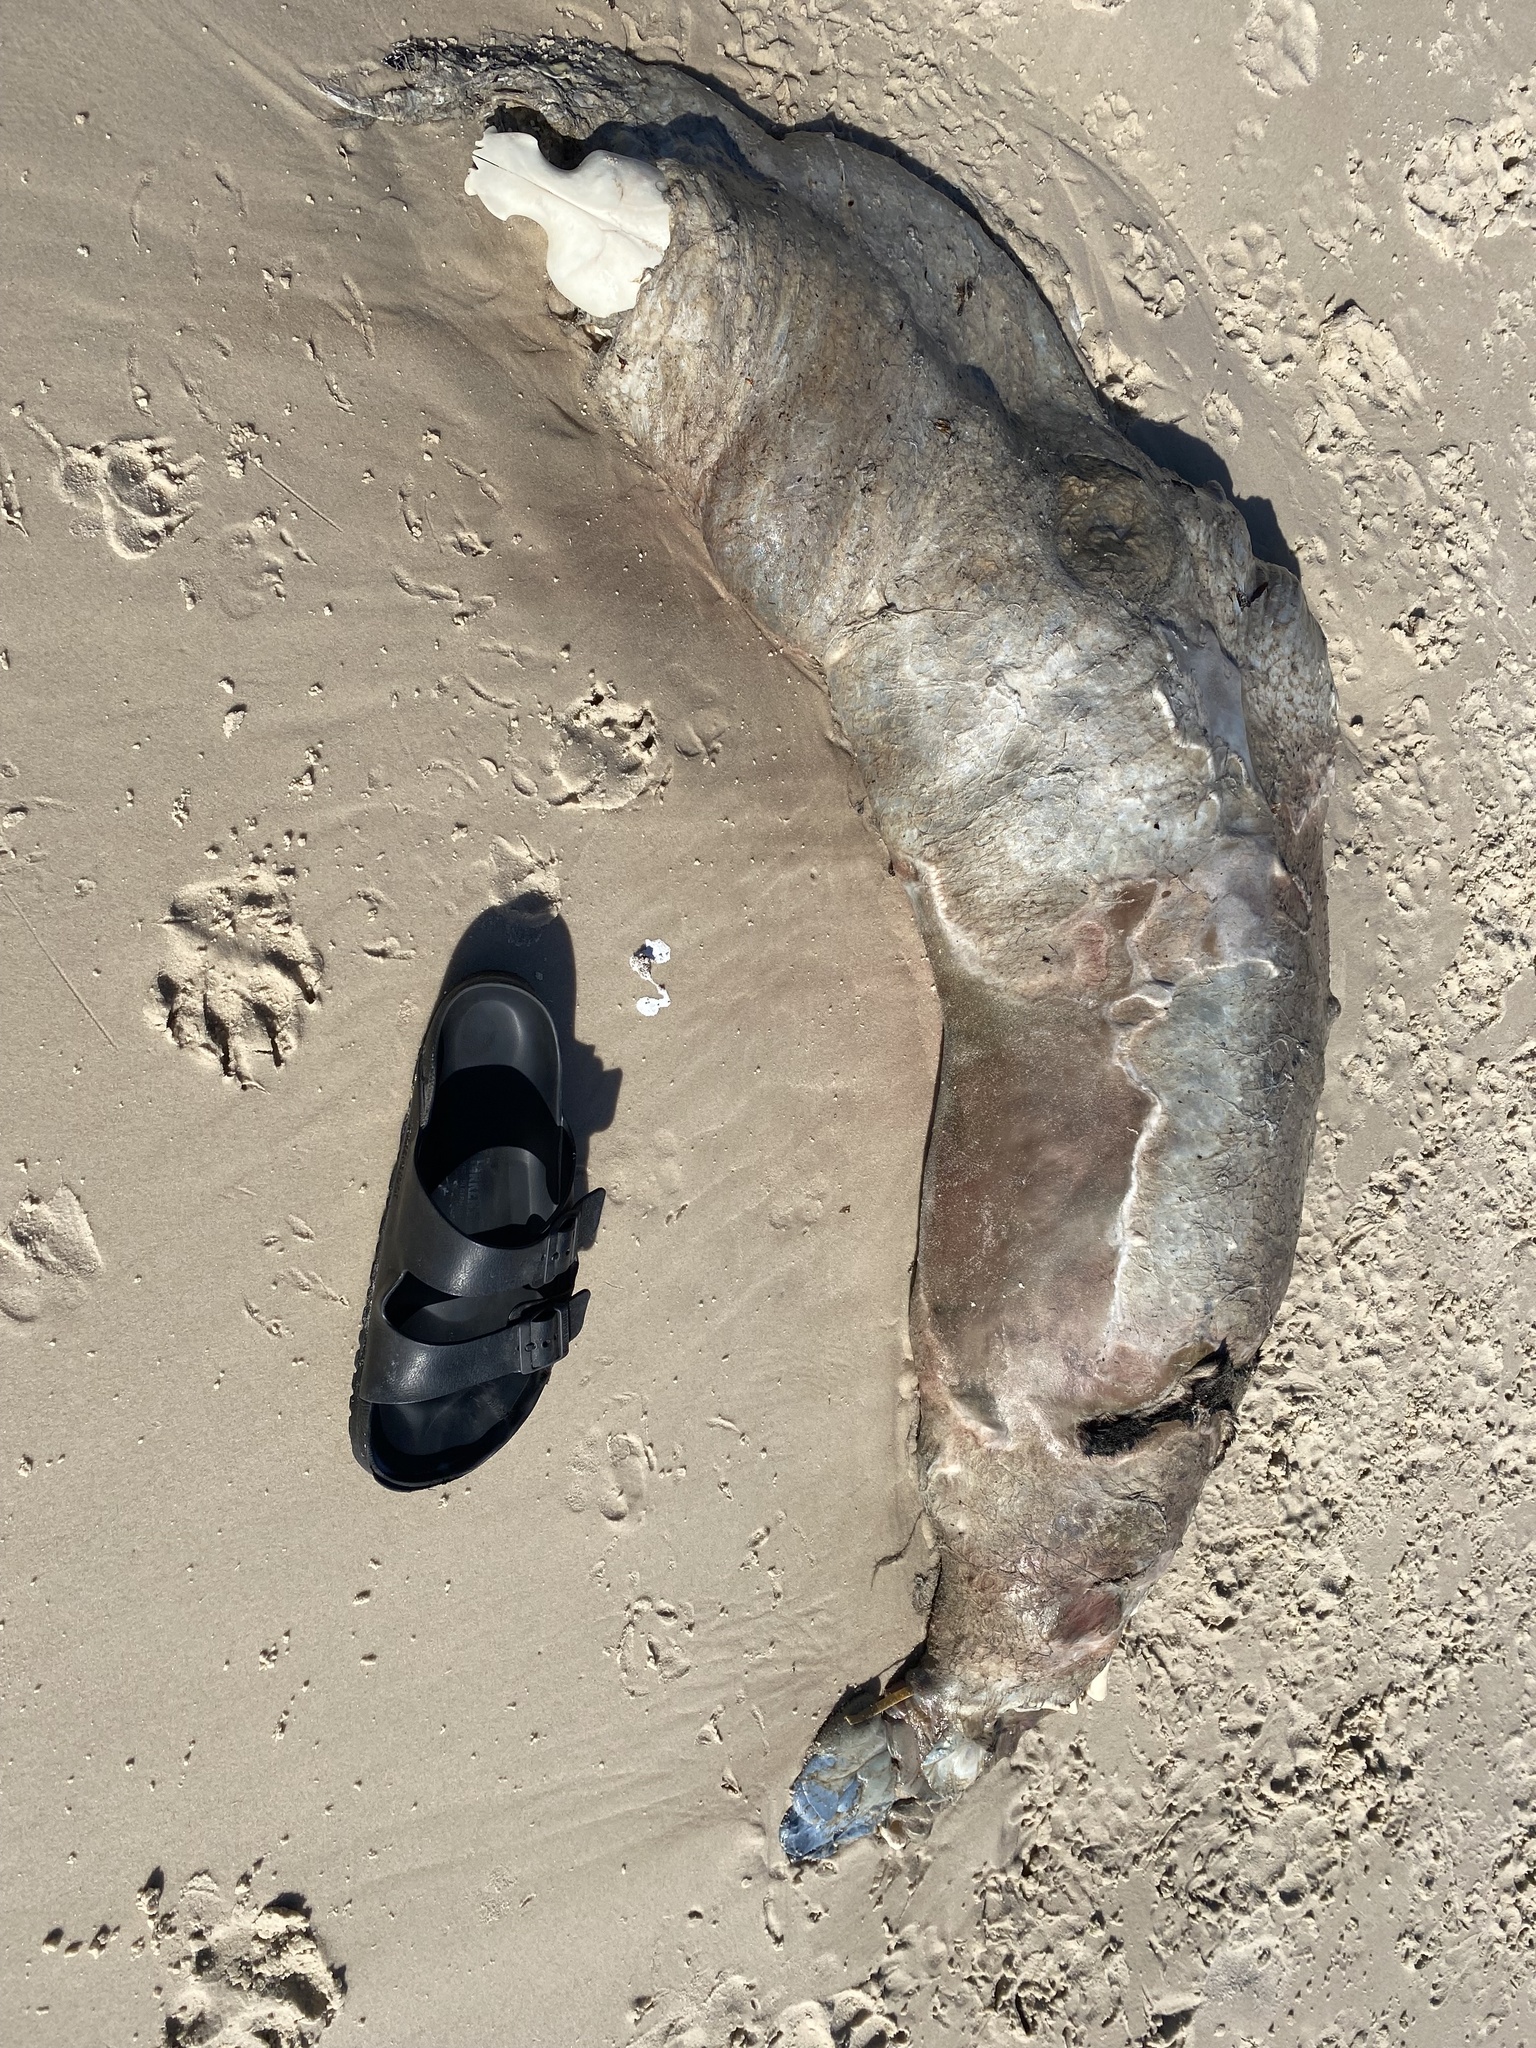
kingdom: Animalia
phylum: Chordata
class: Mammalia
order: Carnivora
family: Otariidae
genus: Arctocephalus
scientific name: Arctocephalus pusillus
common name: Brown fur seal
